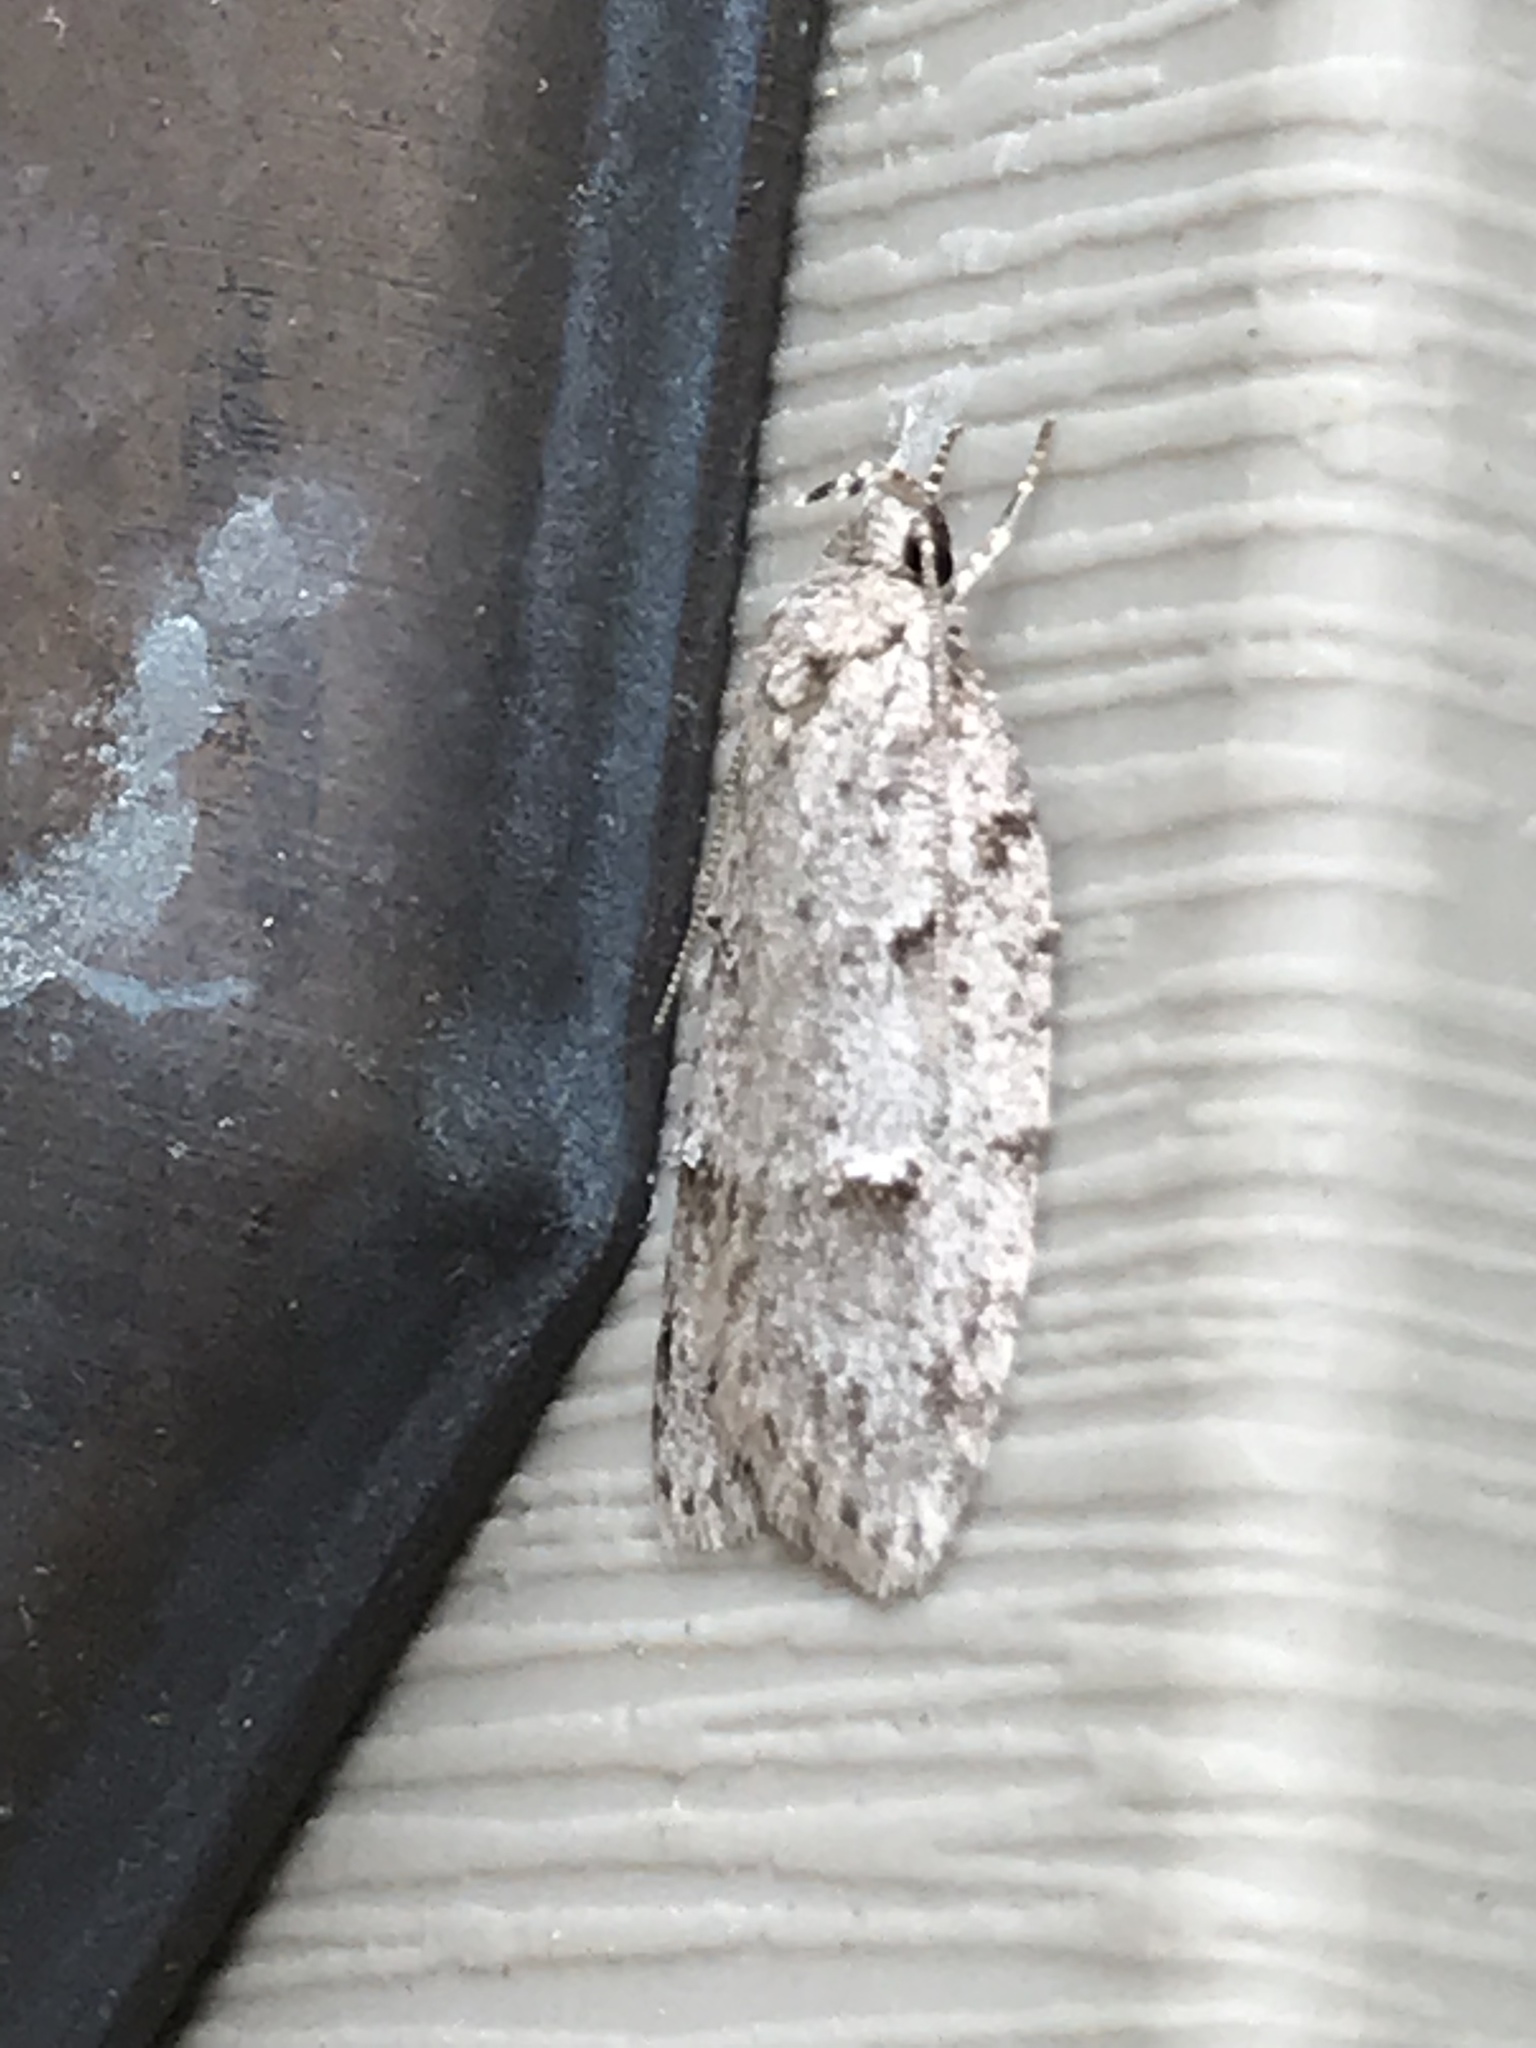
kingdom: Animalia
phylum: Arthropoda
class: Insecta
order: Lepidoptera
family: Depressariidae
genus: Bibarrambla
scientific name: Bibarrambla allenella
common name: Bog bibarrambla moth
